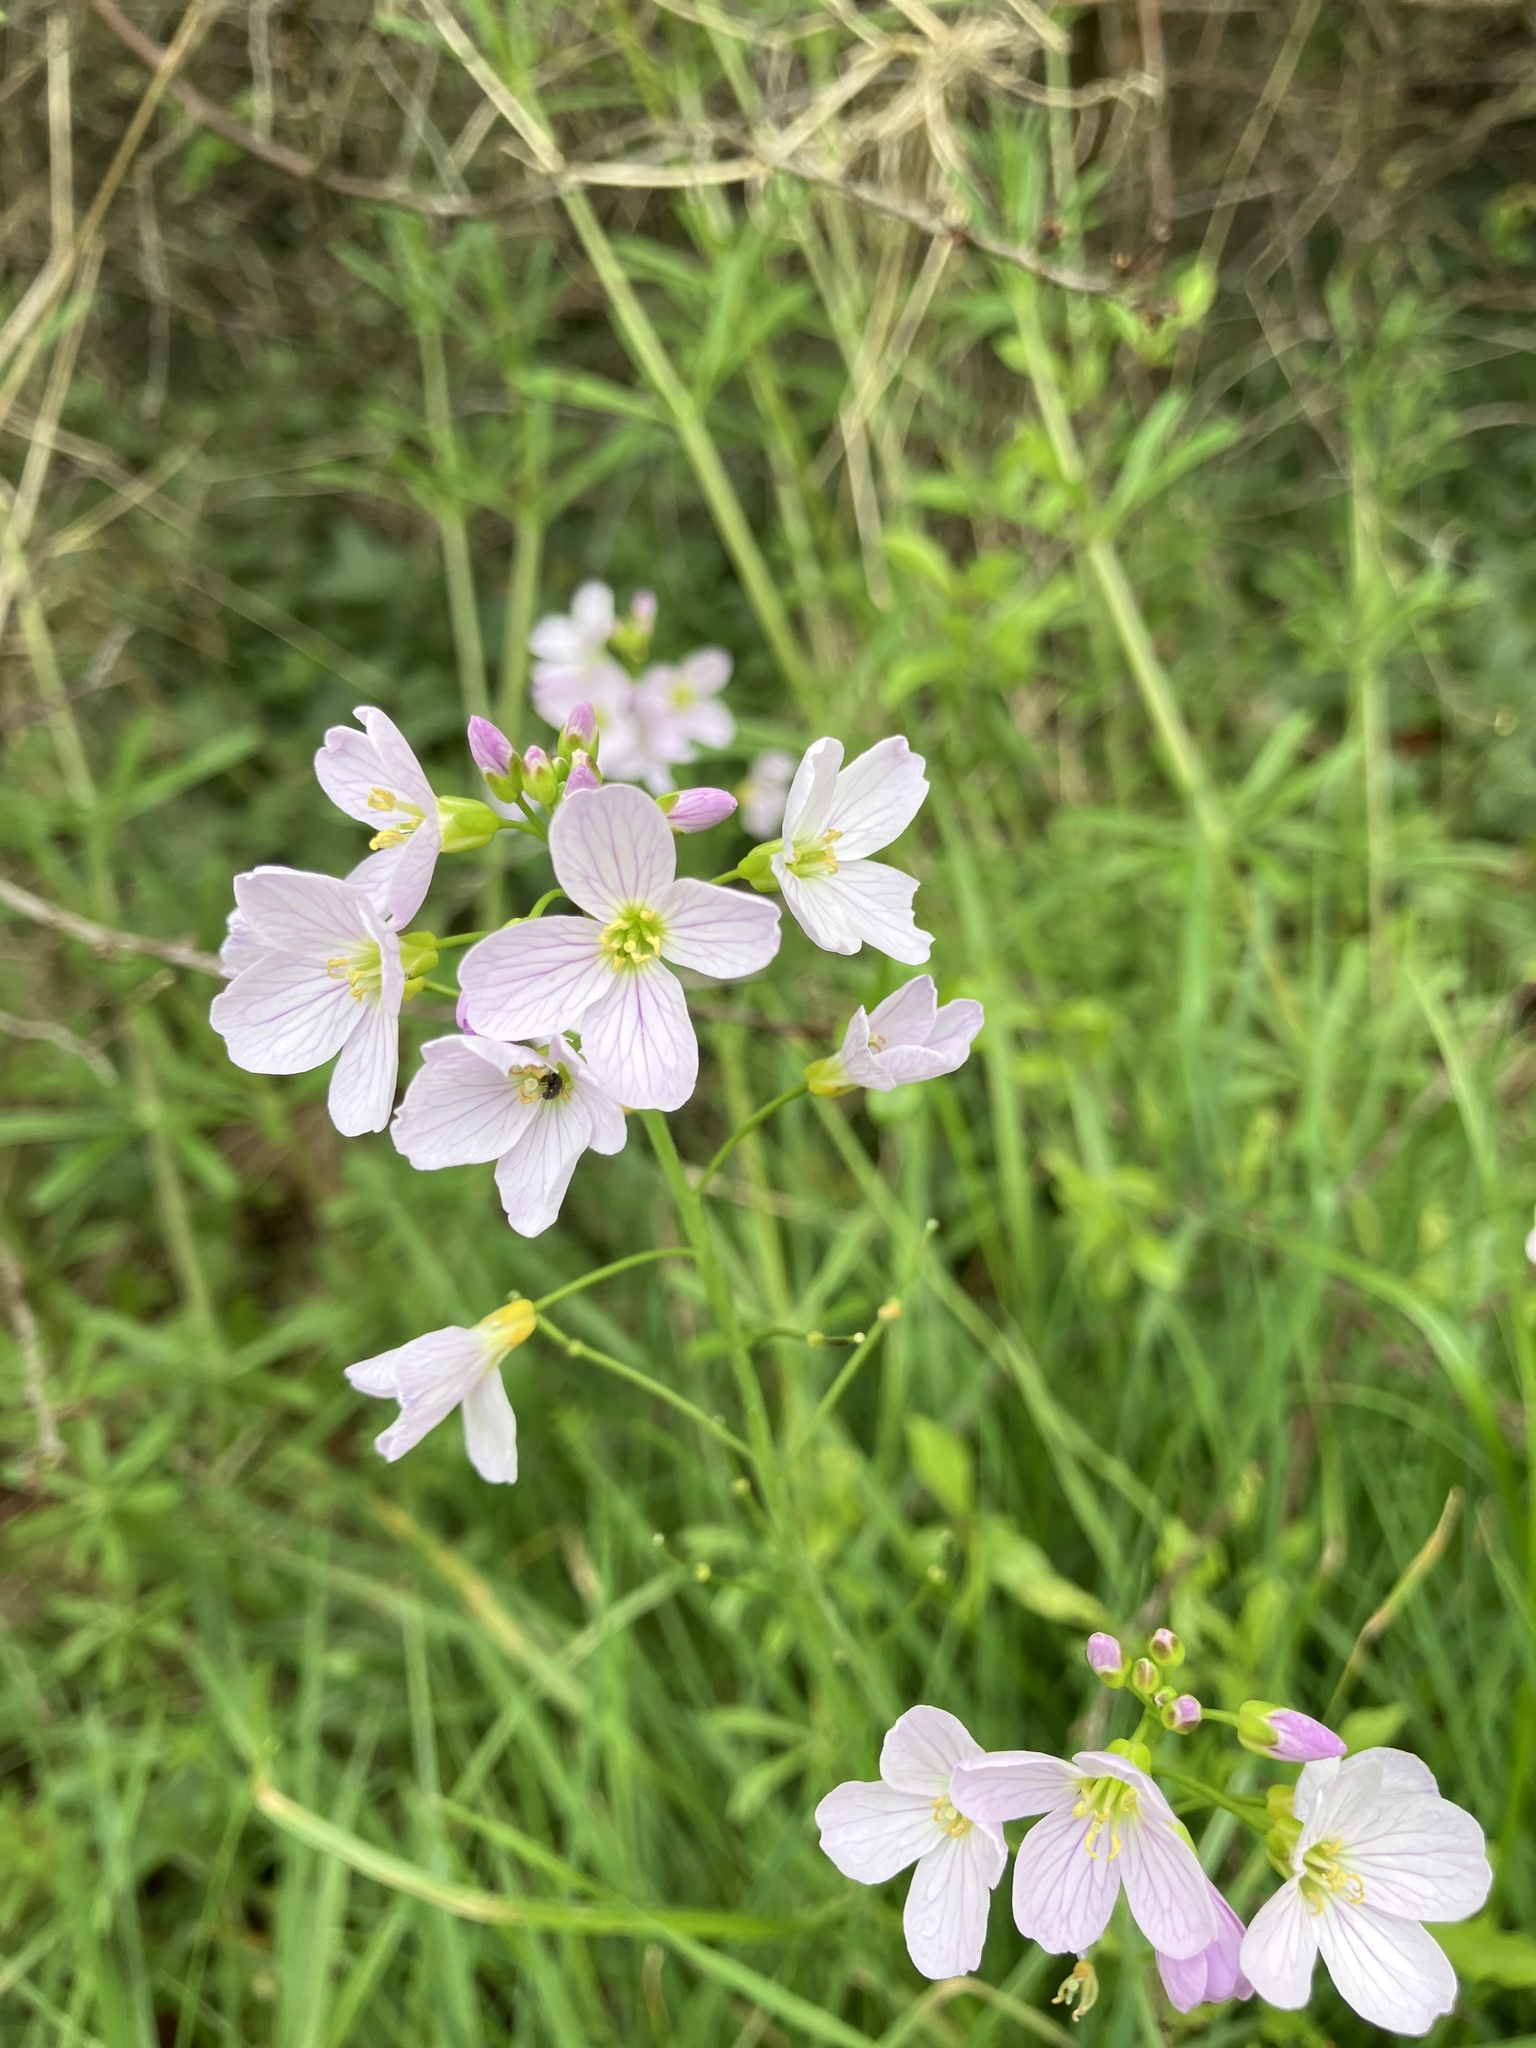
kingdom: Plantae
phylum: Tracheophyta
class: Magnoliopsida
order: Brassicales
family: Brassicaceae
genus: Cardamine
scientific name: Cardamine pratensis
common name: Cuckoo flower
